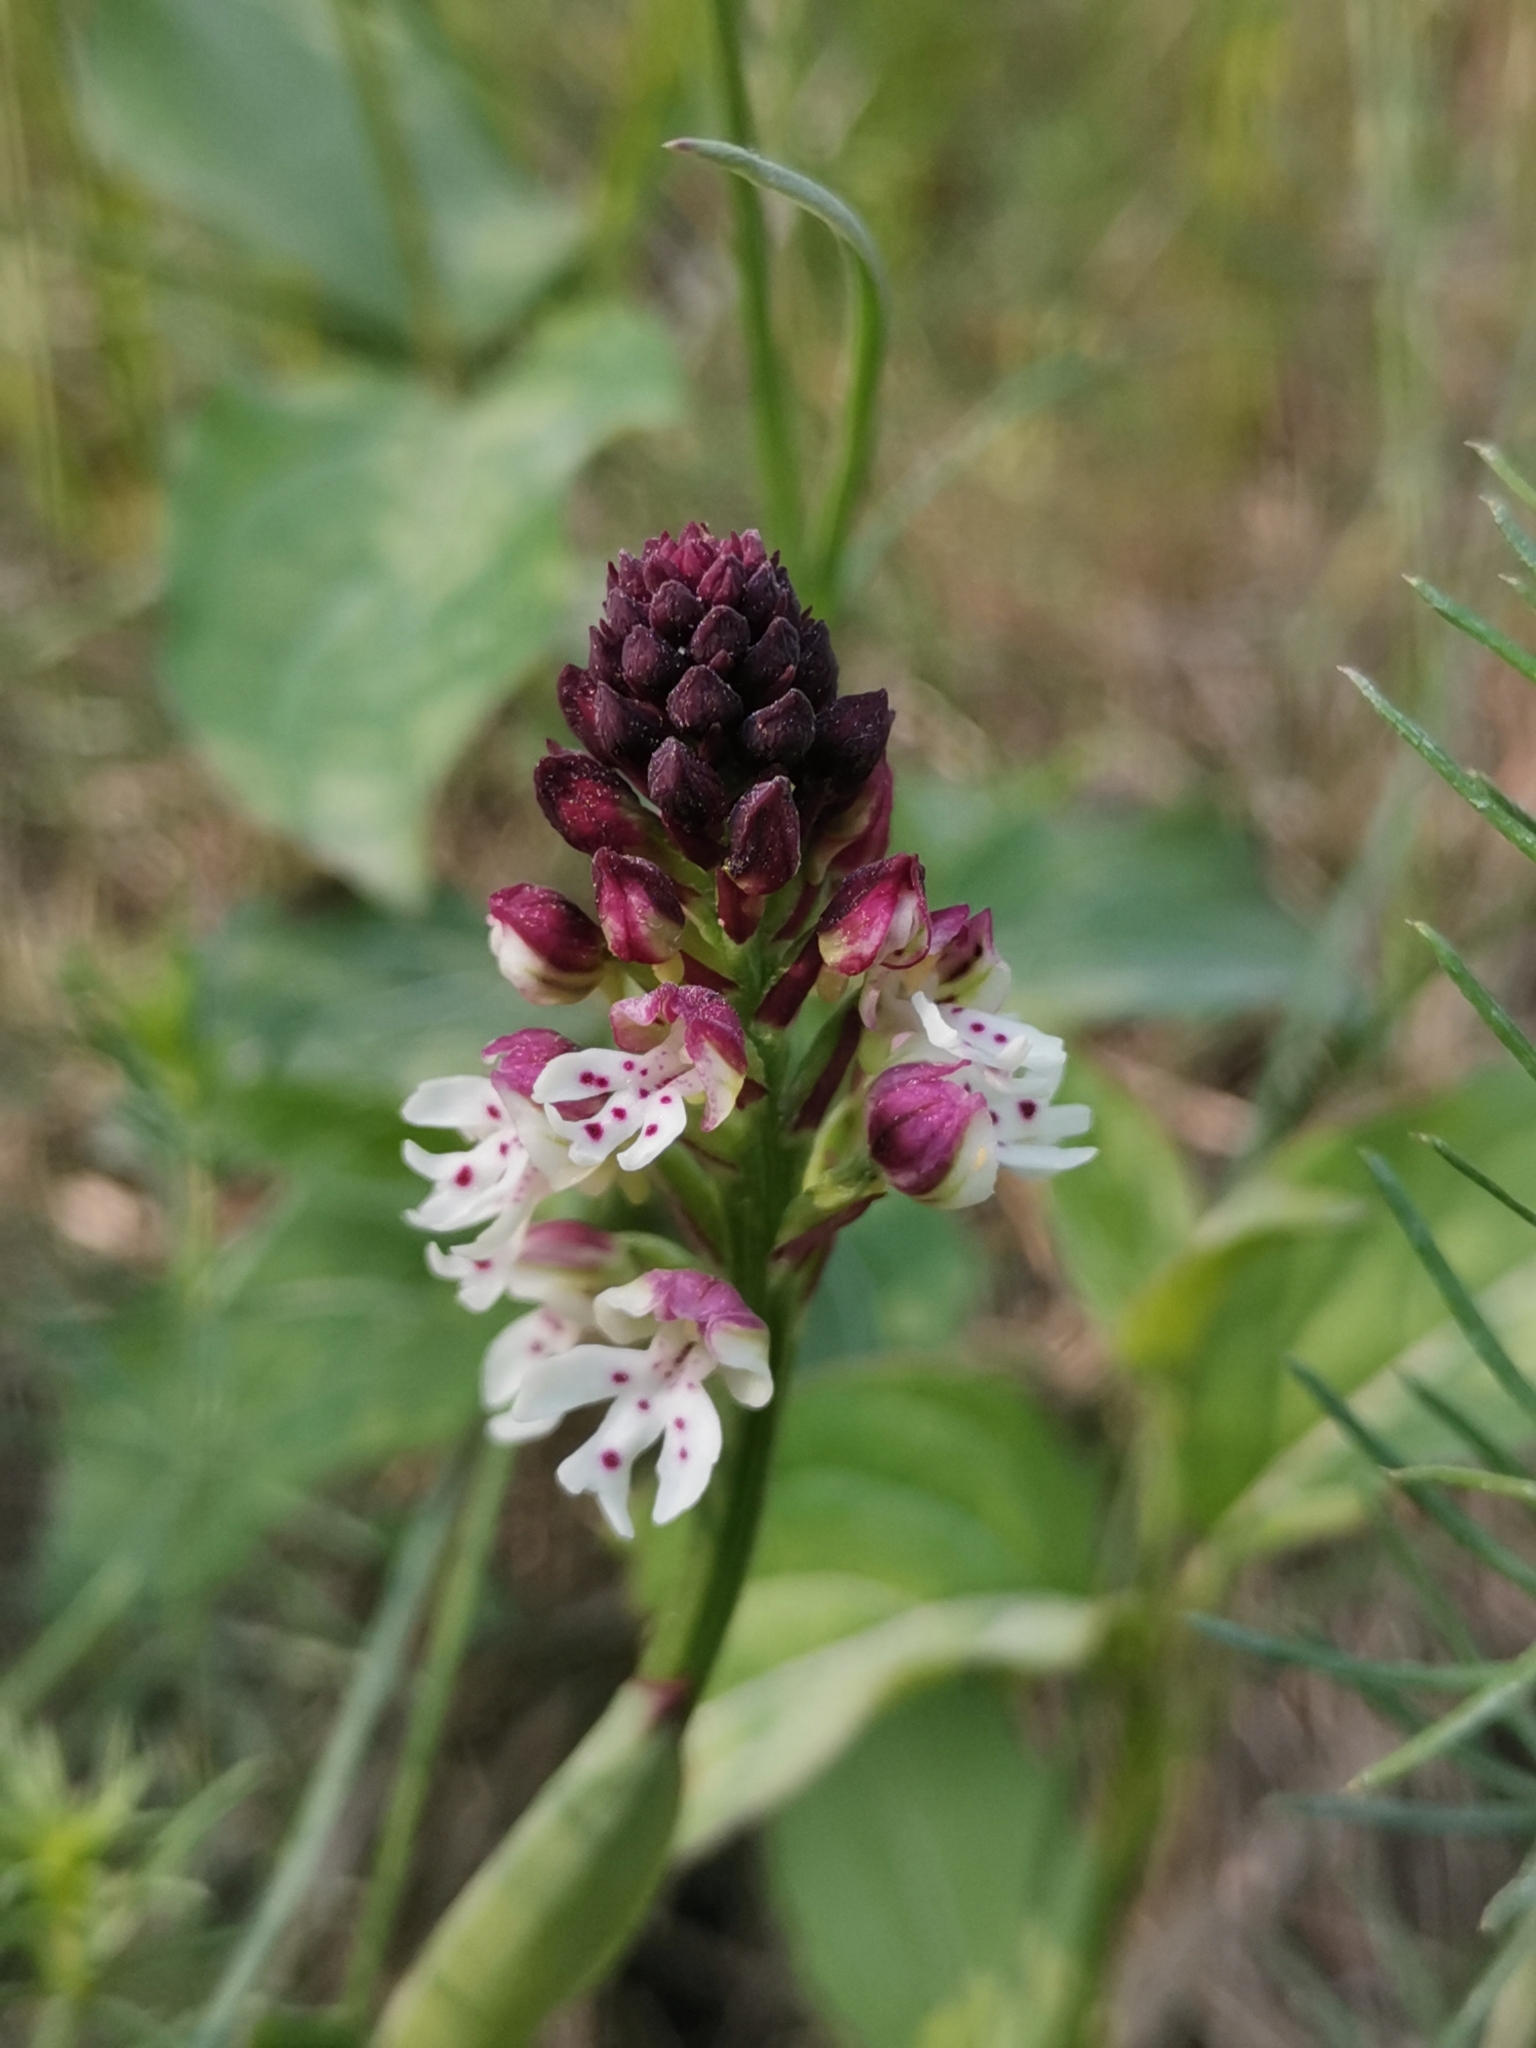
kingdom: Plantae
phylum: Tracheophyta
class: Liliopsida
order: Asparagales
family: Orchidaceae
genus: Neotinea
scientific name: Neotinea ustulata
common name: Burnt orchid
